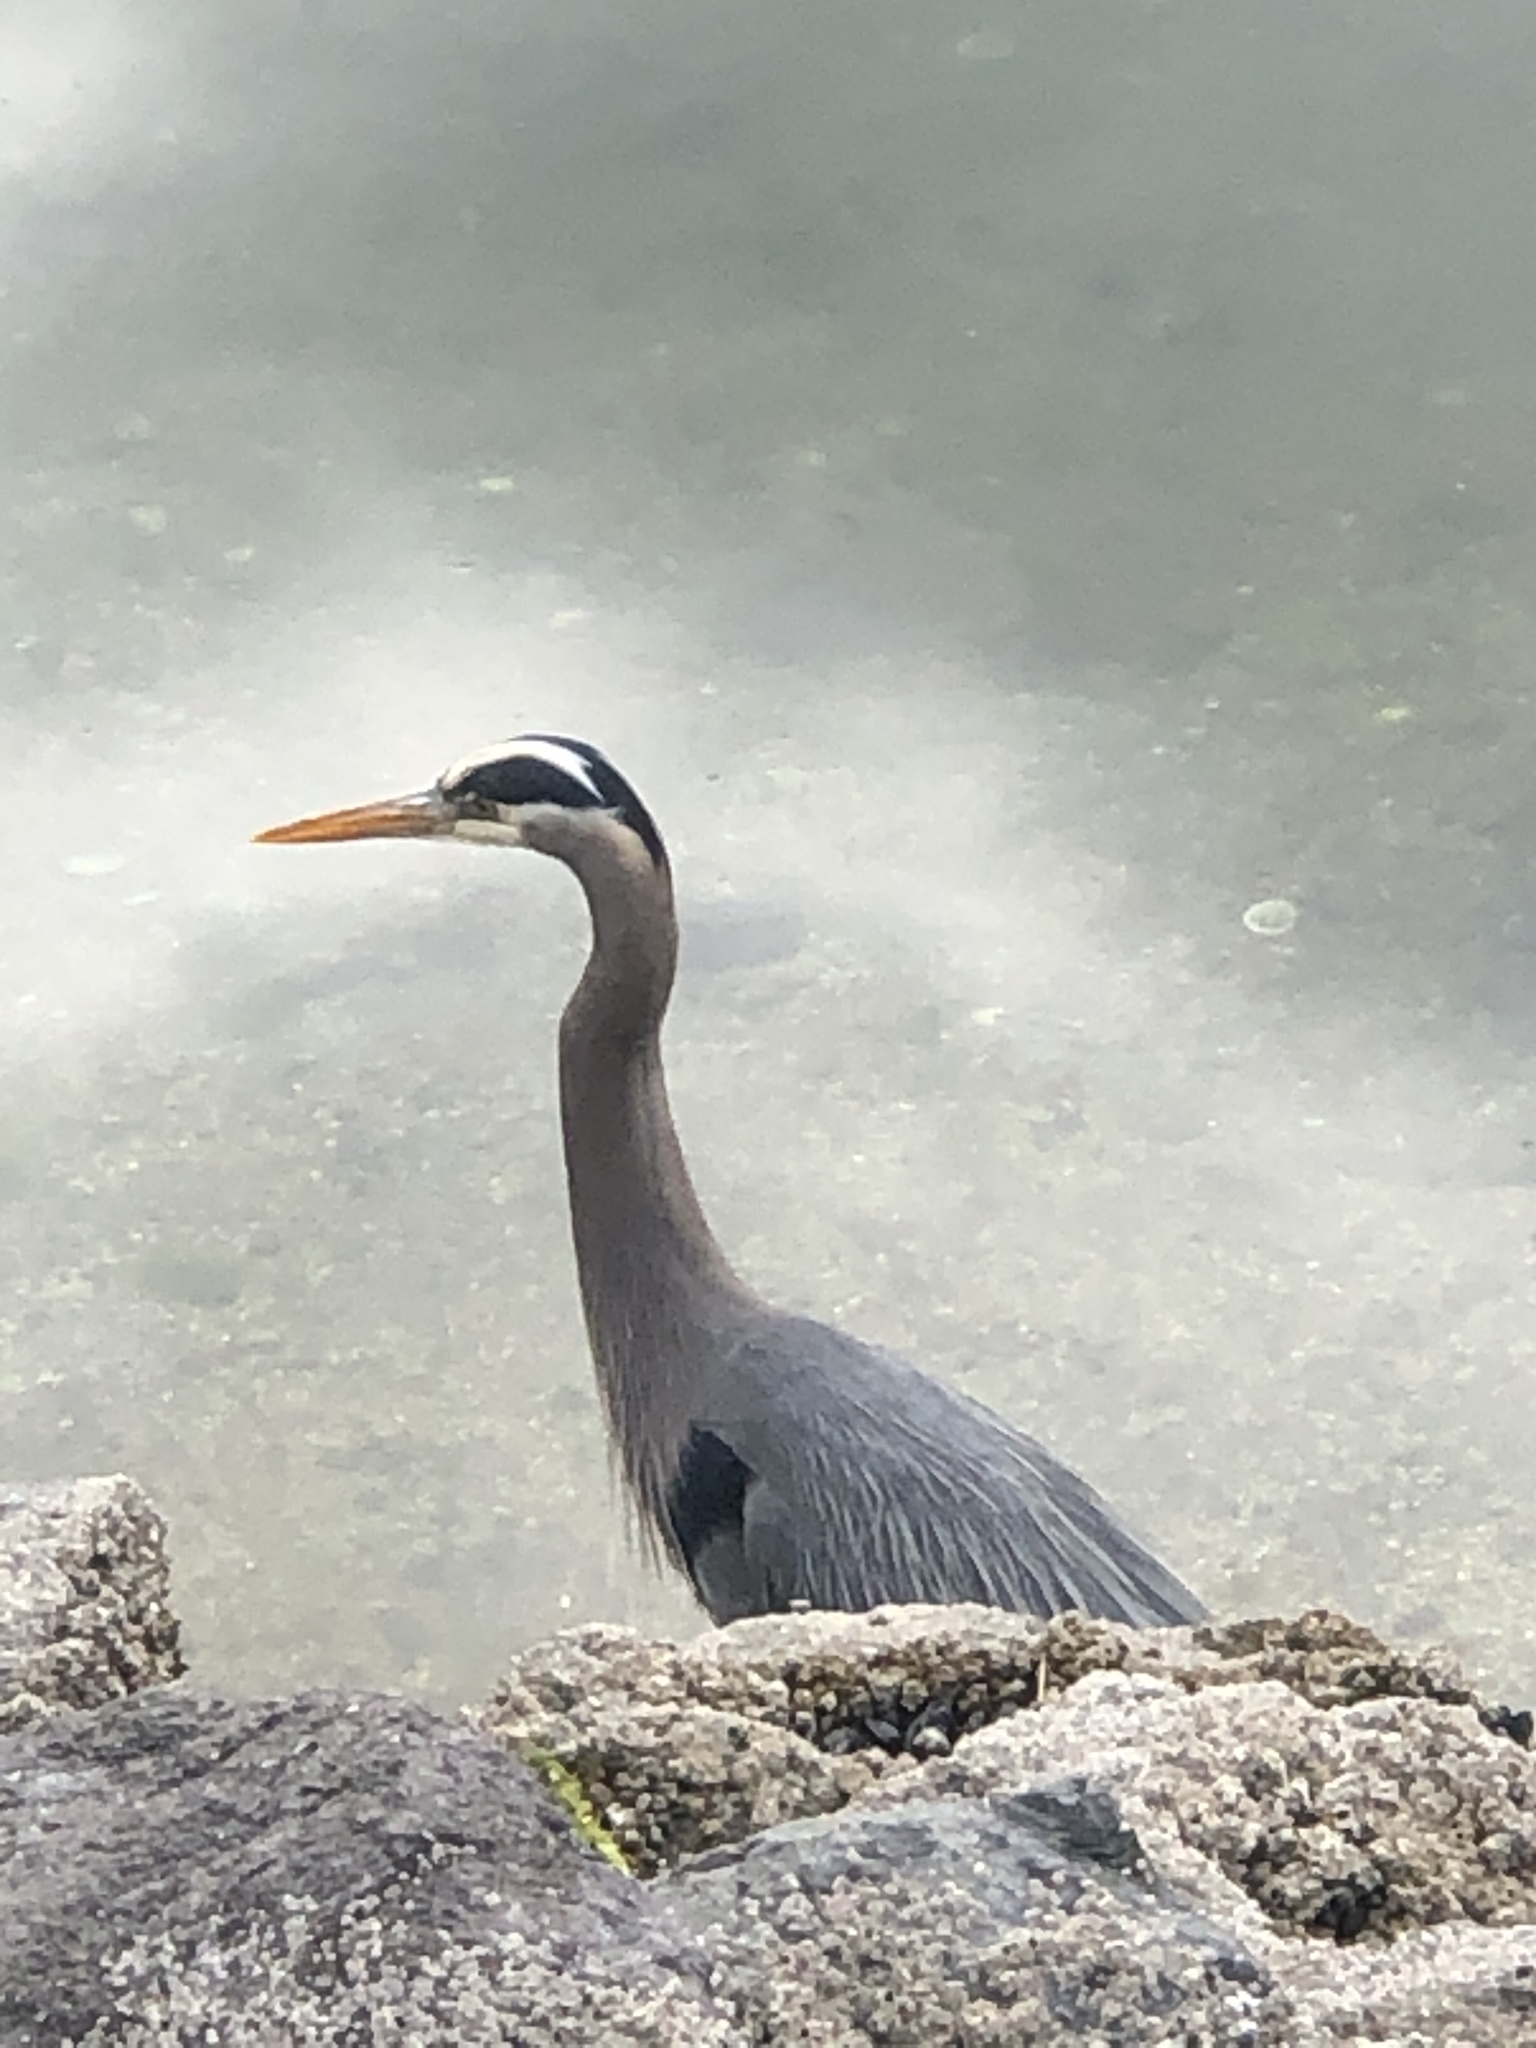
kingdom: Animalia
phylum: Chordata
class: Aves
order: Pelecaniformes
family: Ardeidae
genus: Ardea
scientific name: Ardea herodias
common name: Great blue heron
